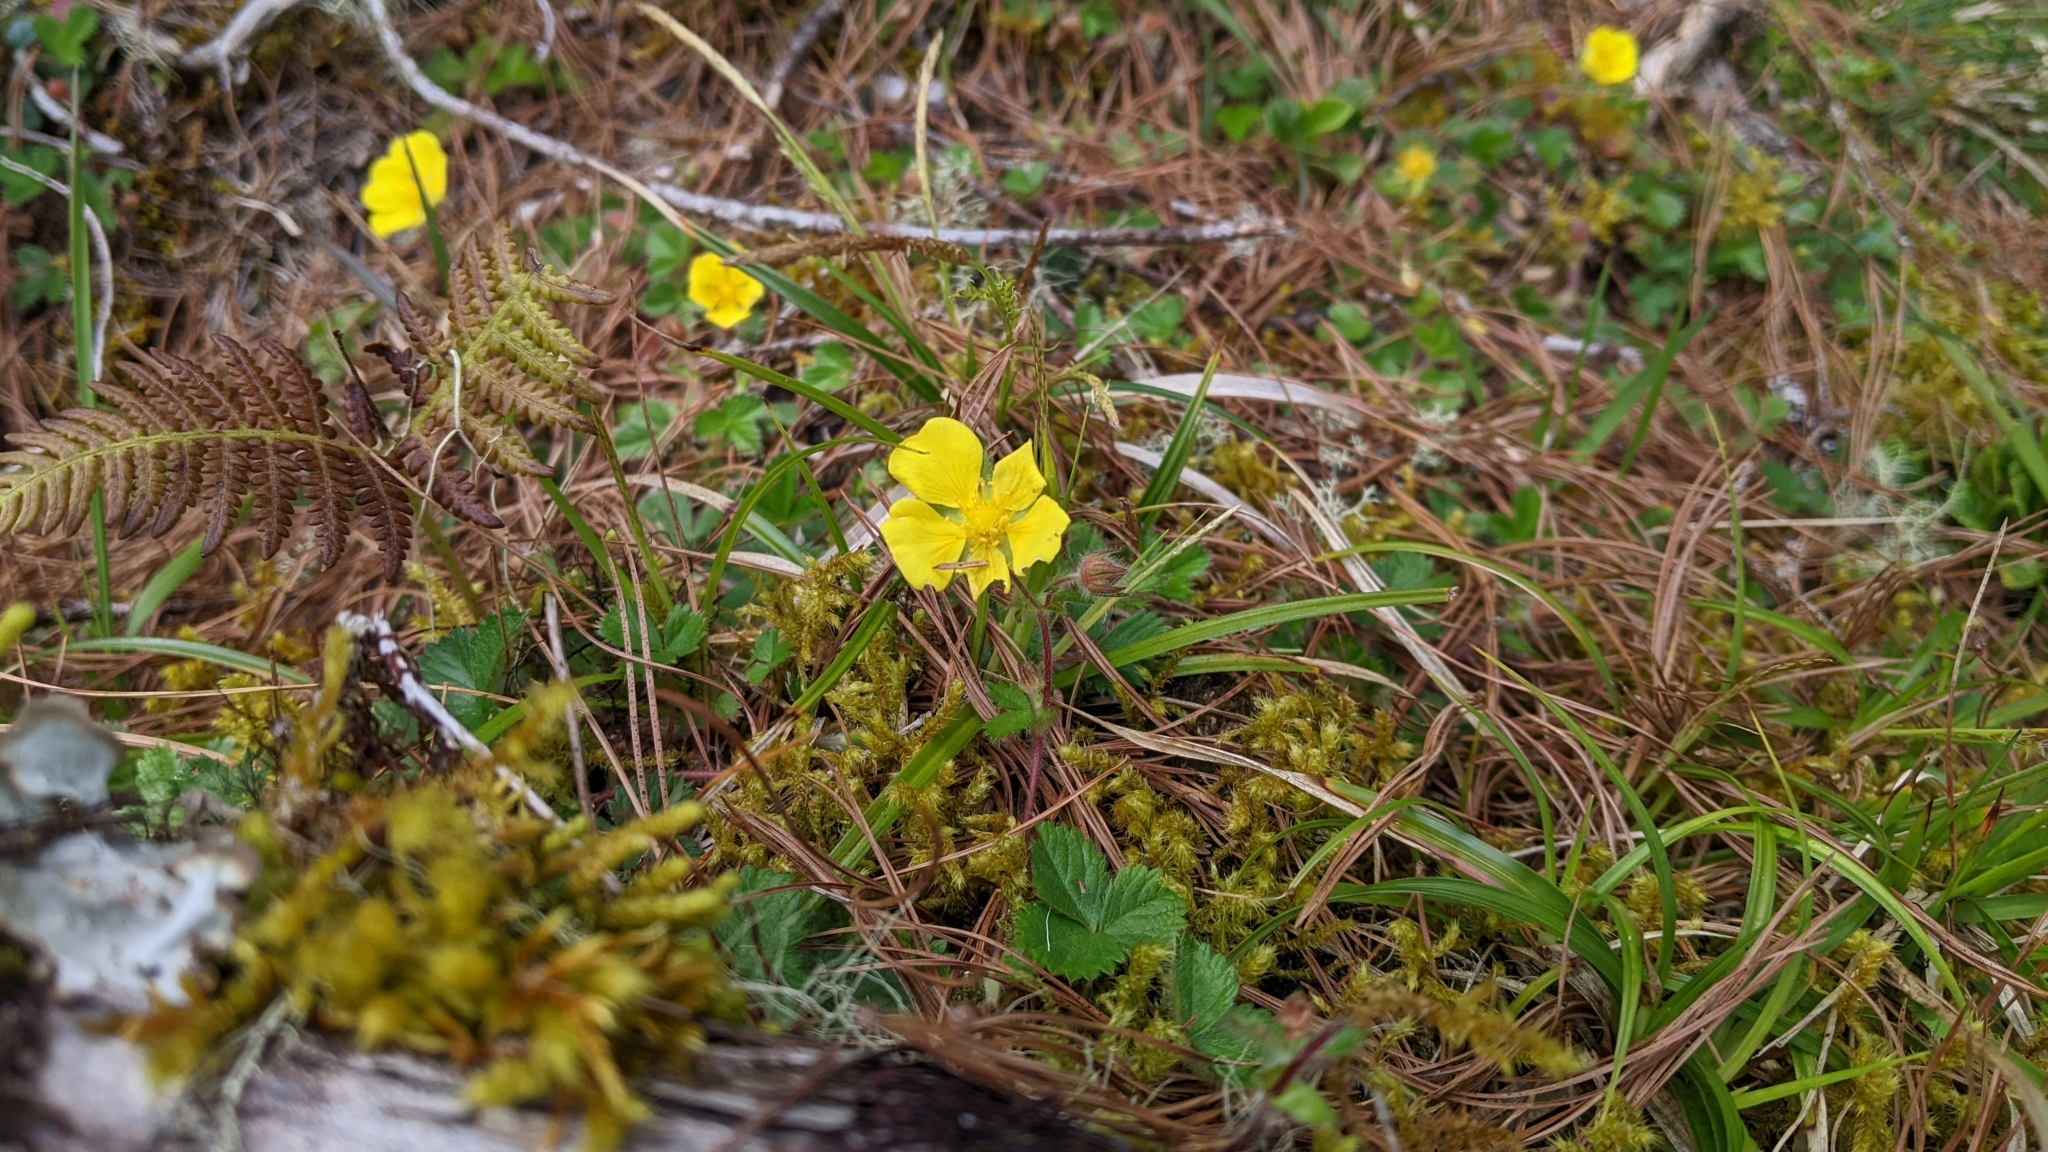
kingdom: Plantae
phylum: Tracheophyta
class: Magnoliopsida
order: Rosales
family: Rosaceae
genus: Potentilla
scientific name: Potentilla matsumurae
